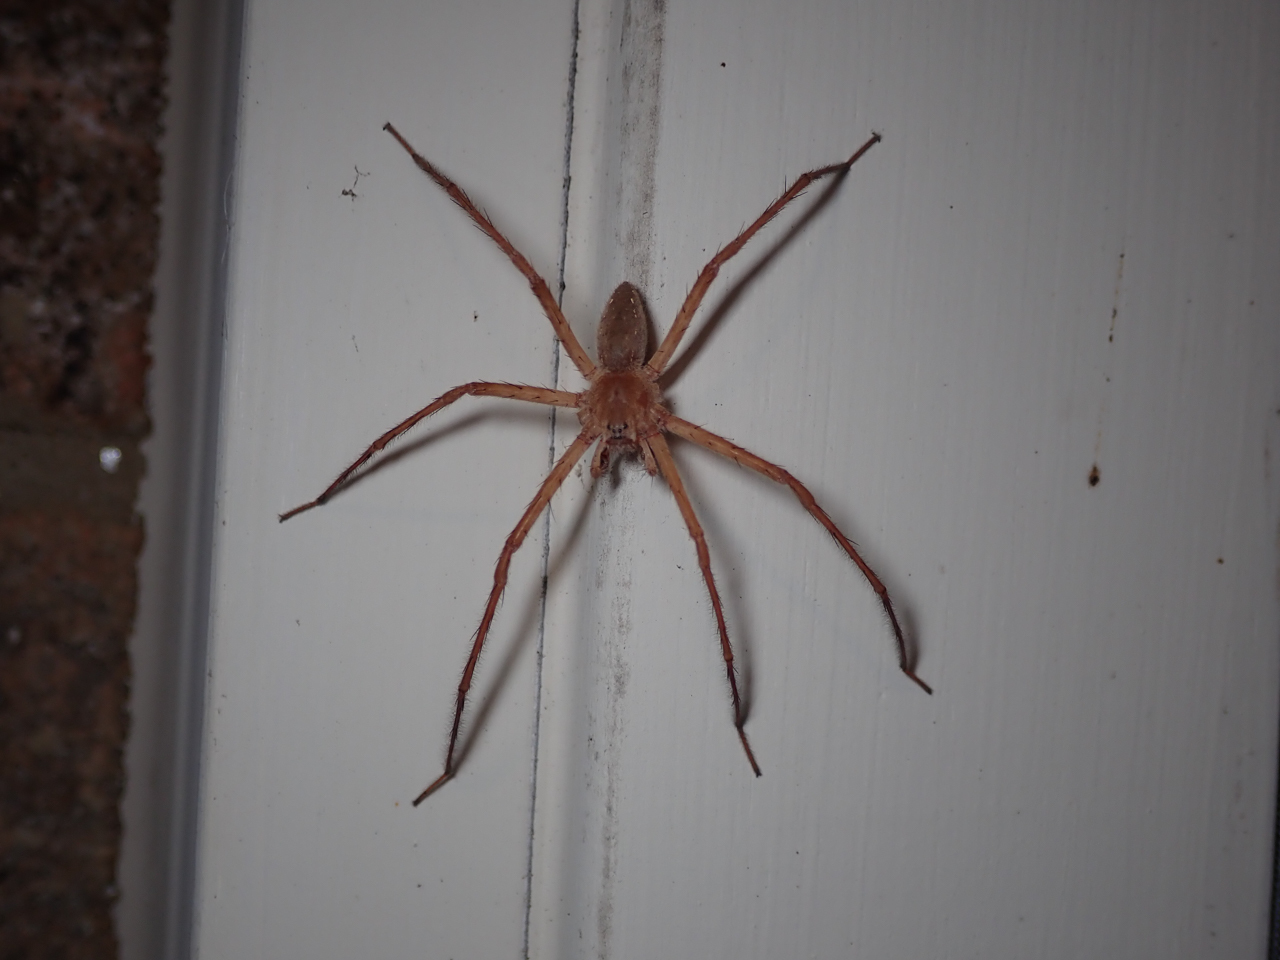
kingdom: Animalia
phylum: Arthropoda
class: Arachnida
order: Araneae
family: Pisauridae
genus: Pisaurina
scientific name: Pisaurina mira
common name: American nursery web spider
